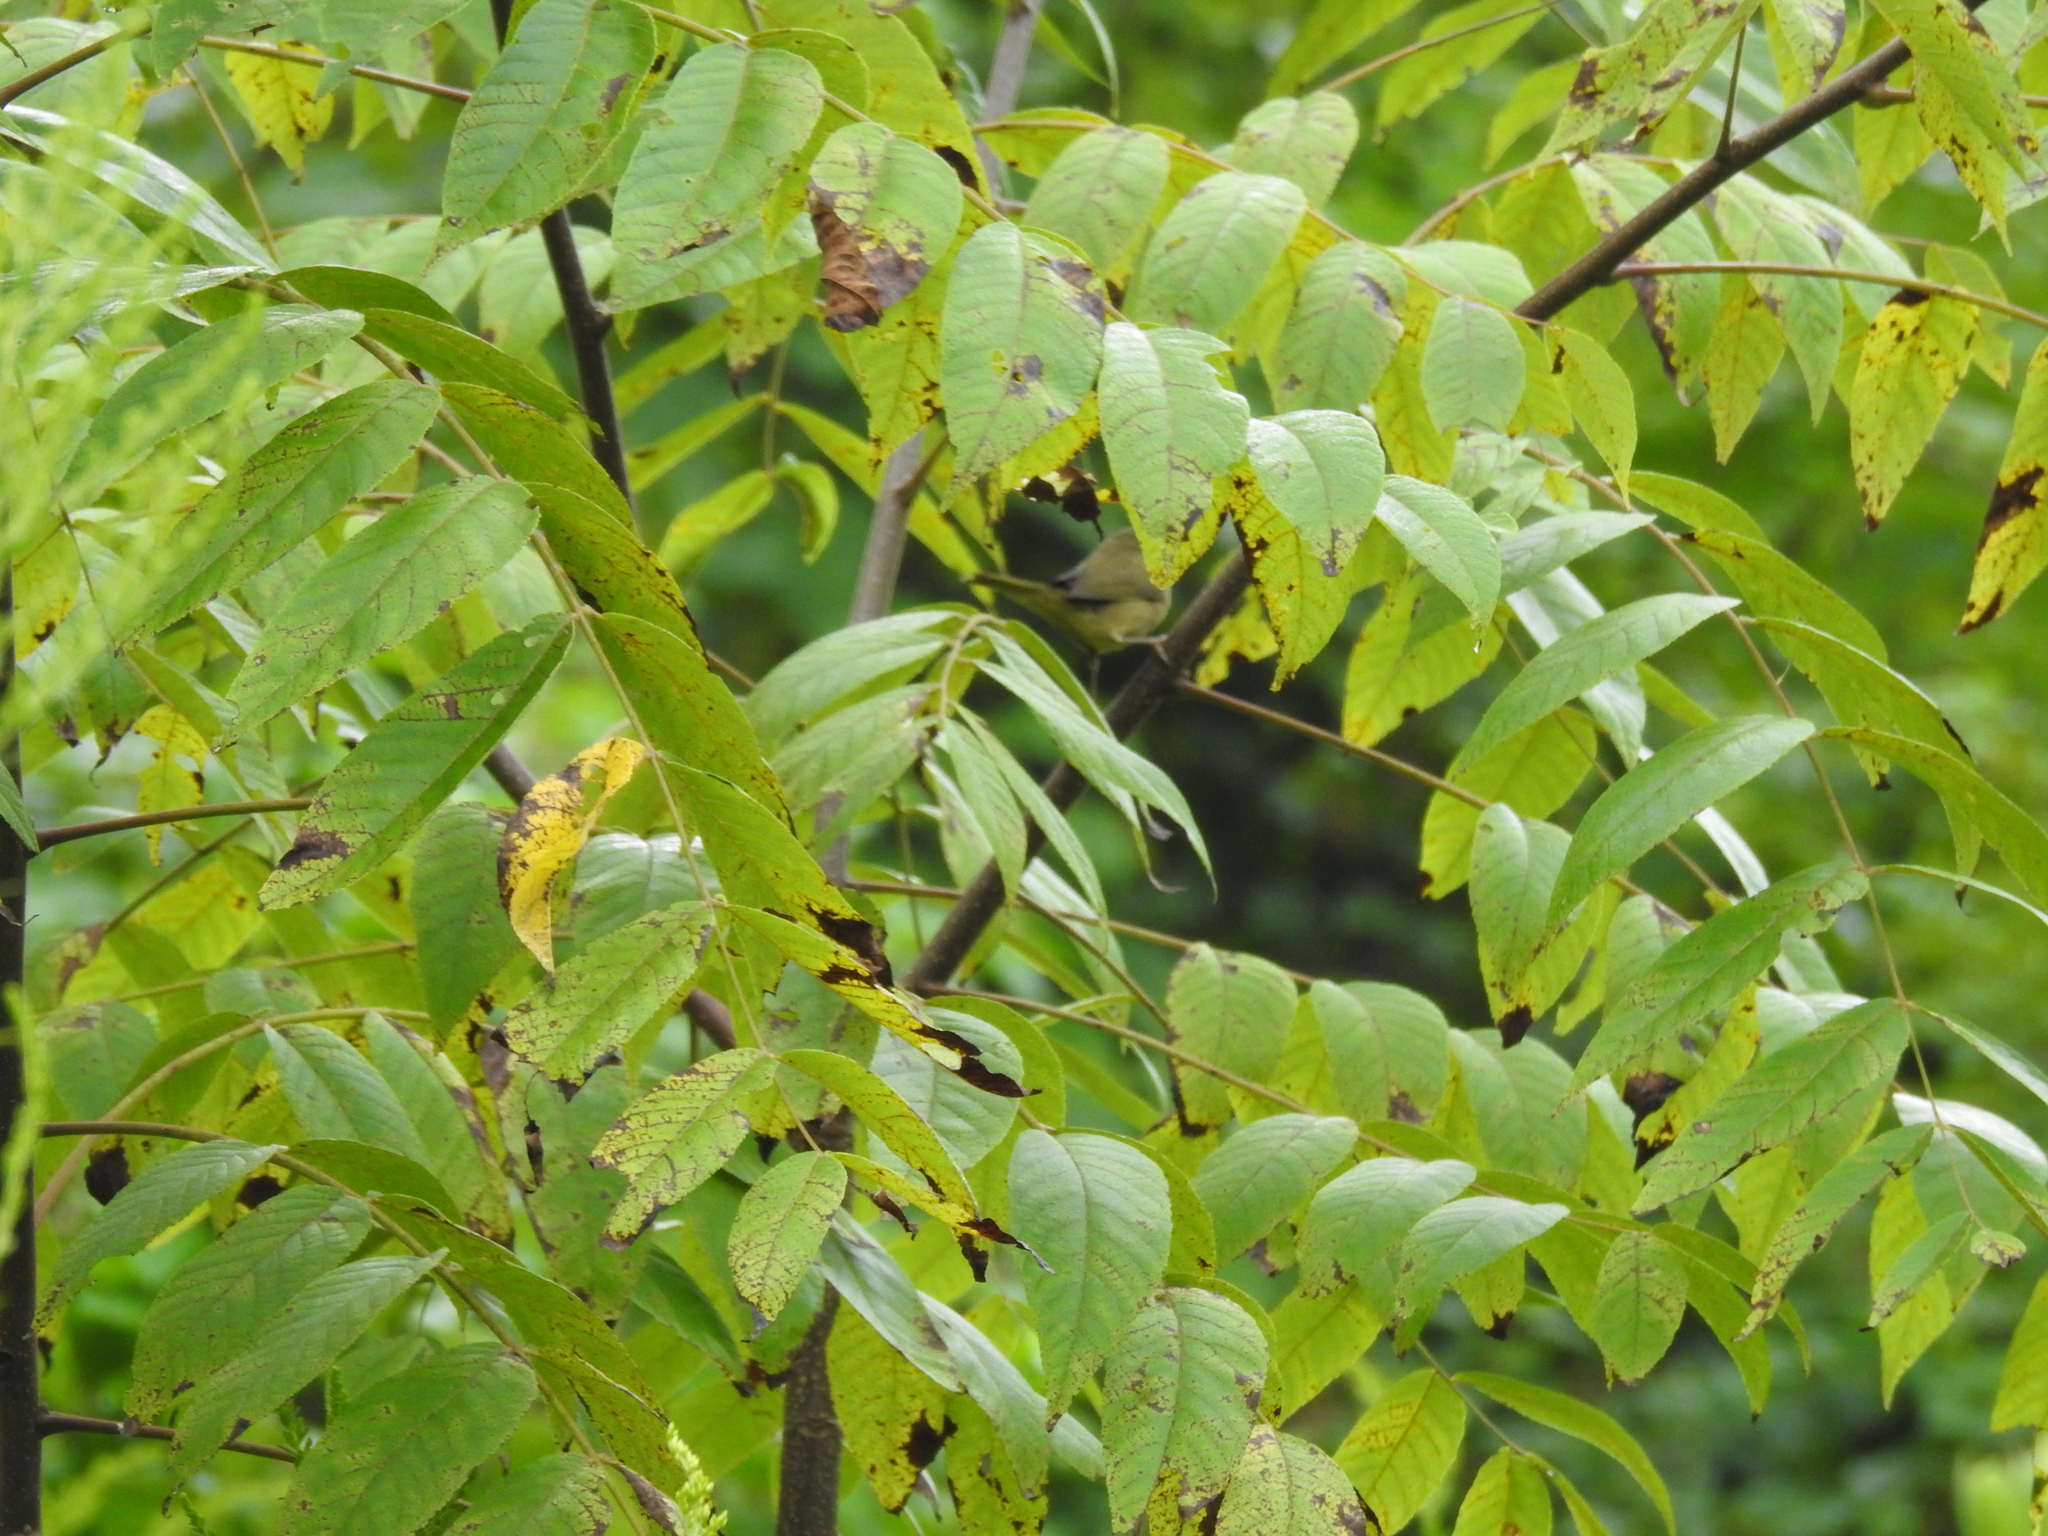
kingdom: Animalia
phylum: Chordata
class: Aves
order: Passeriformes
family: Parulidae
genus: Geothlypis
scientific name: Geothlypis trichas
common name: Common yellowthroat
